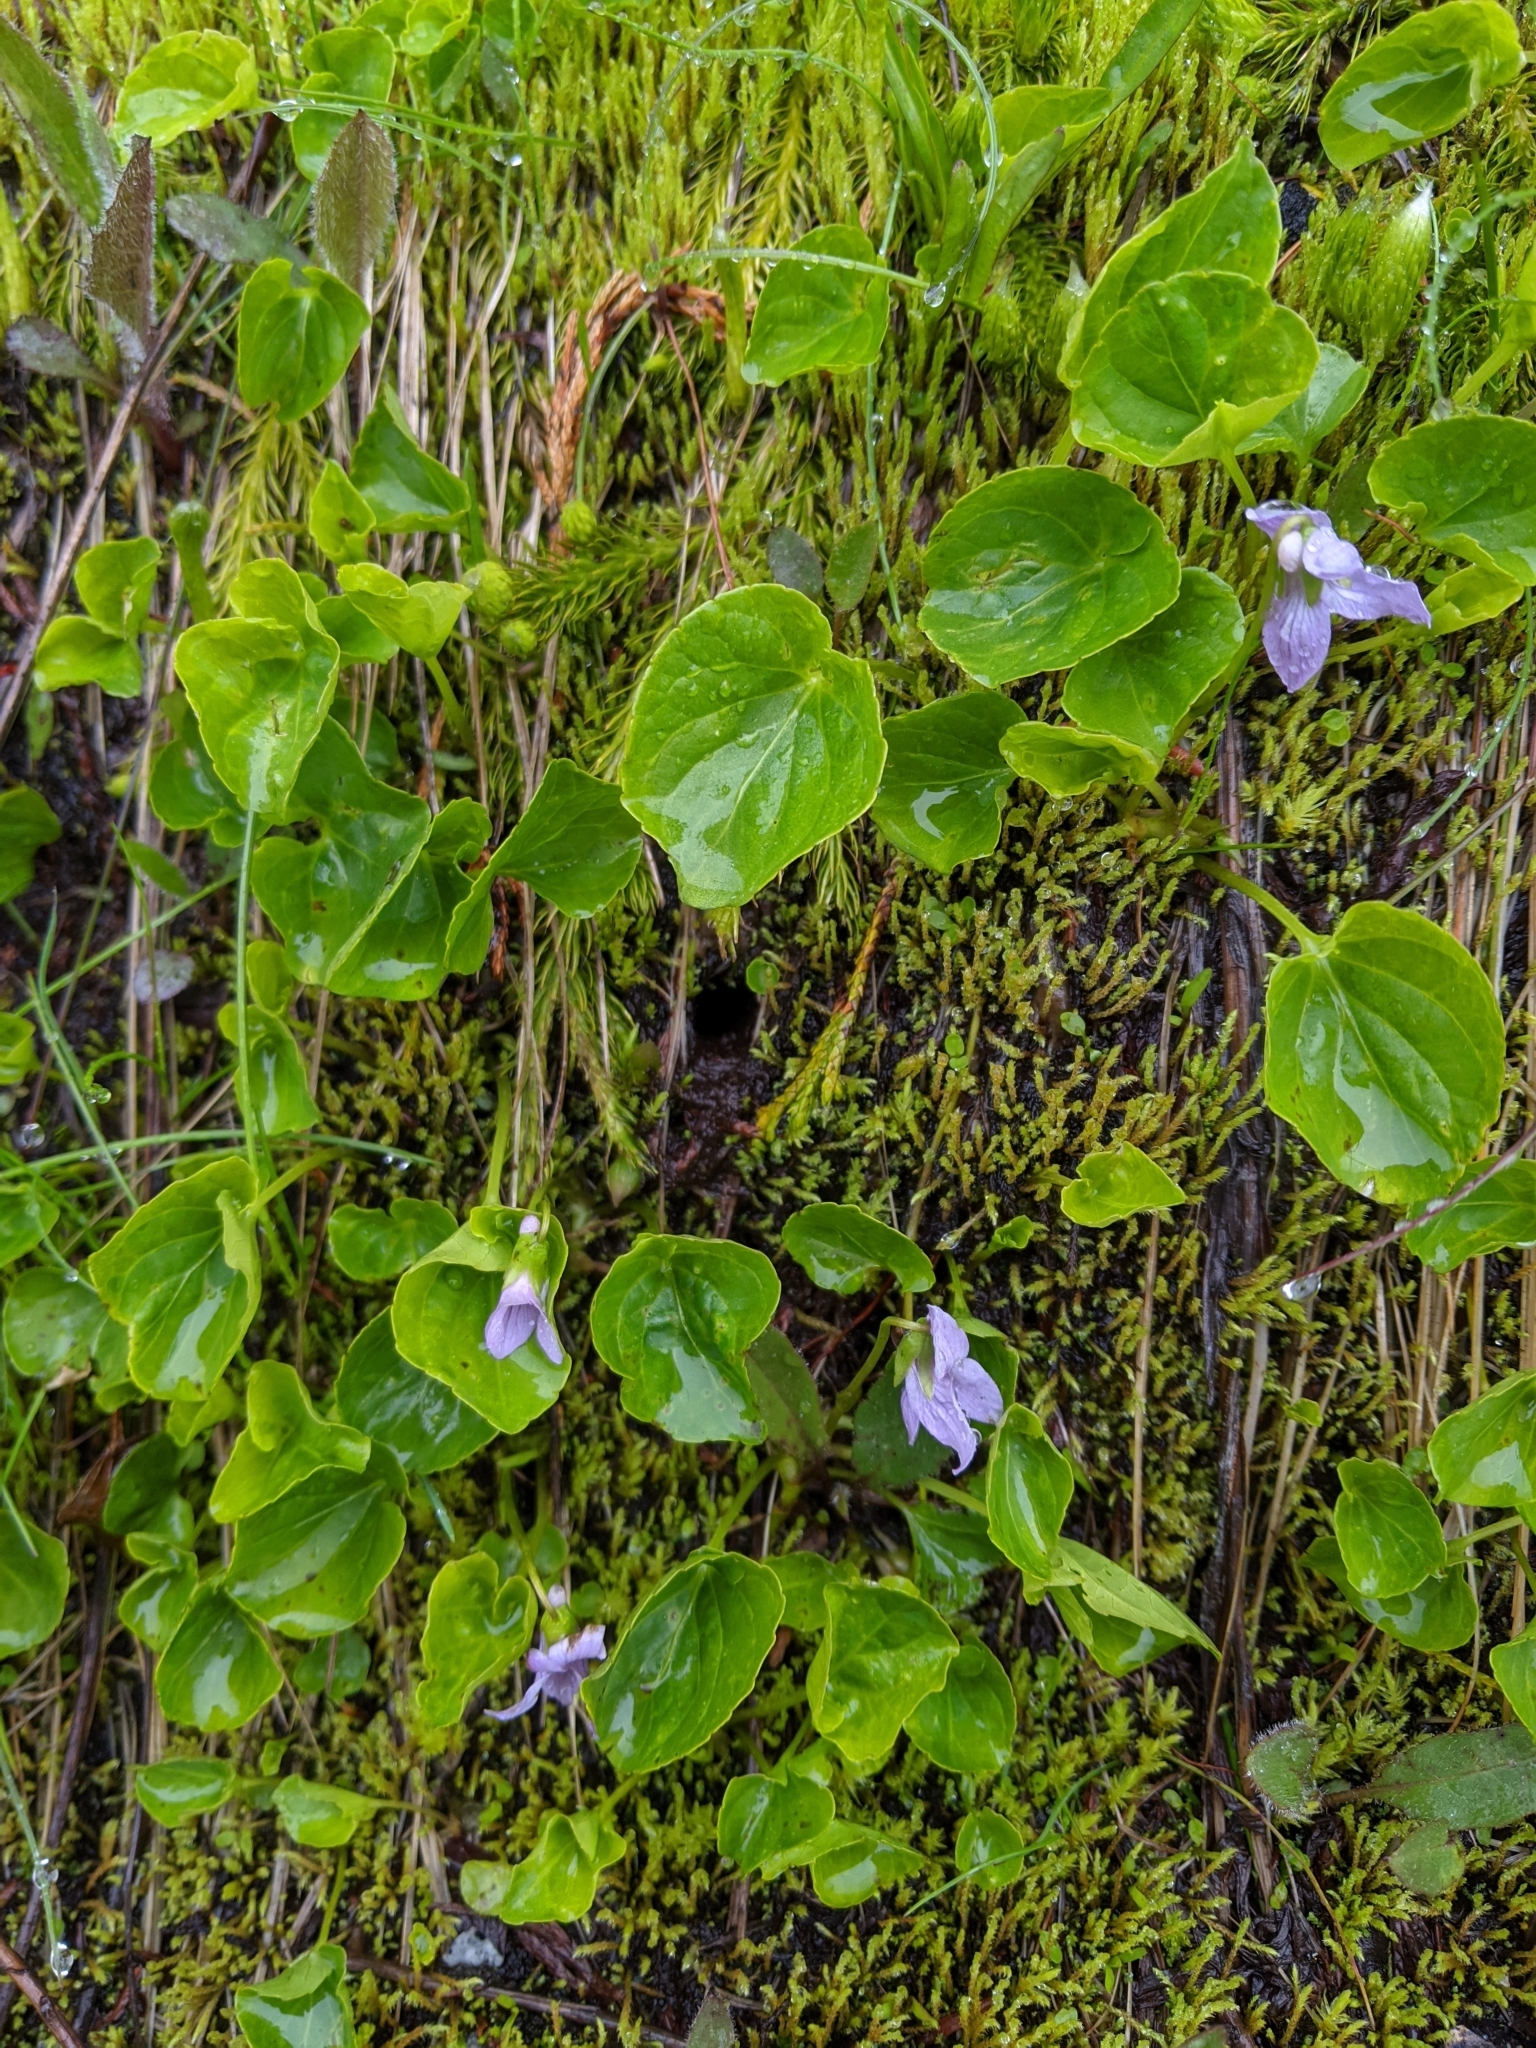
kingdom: Plantae
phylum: Tracheophyta
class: Magnoliopsida
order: Malpighiales
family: Violaceae
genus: Viola
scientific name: Viola palustris
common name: Marsh violet
